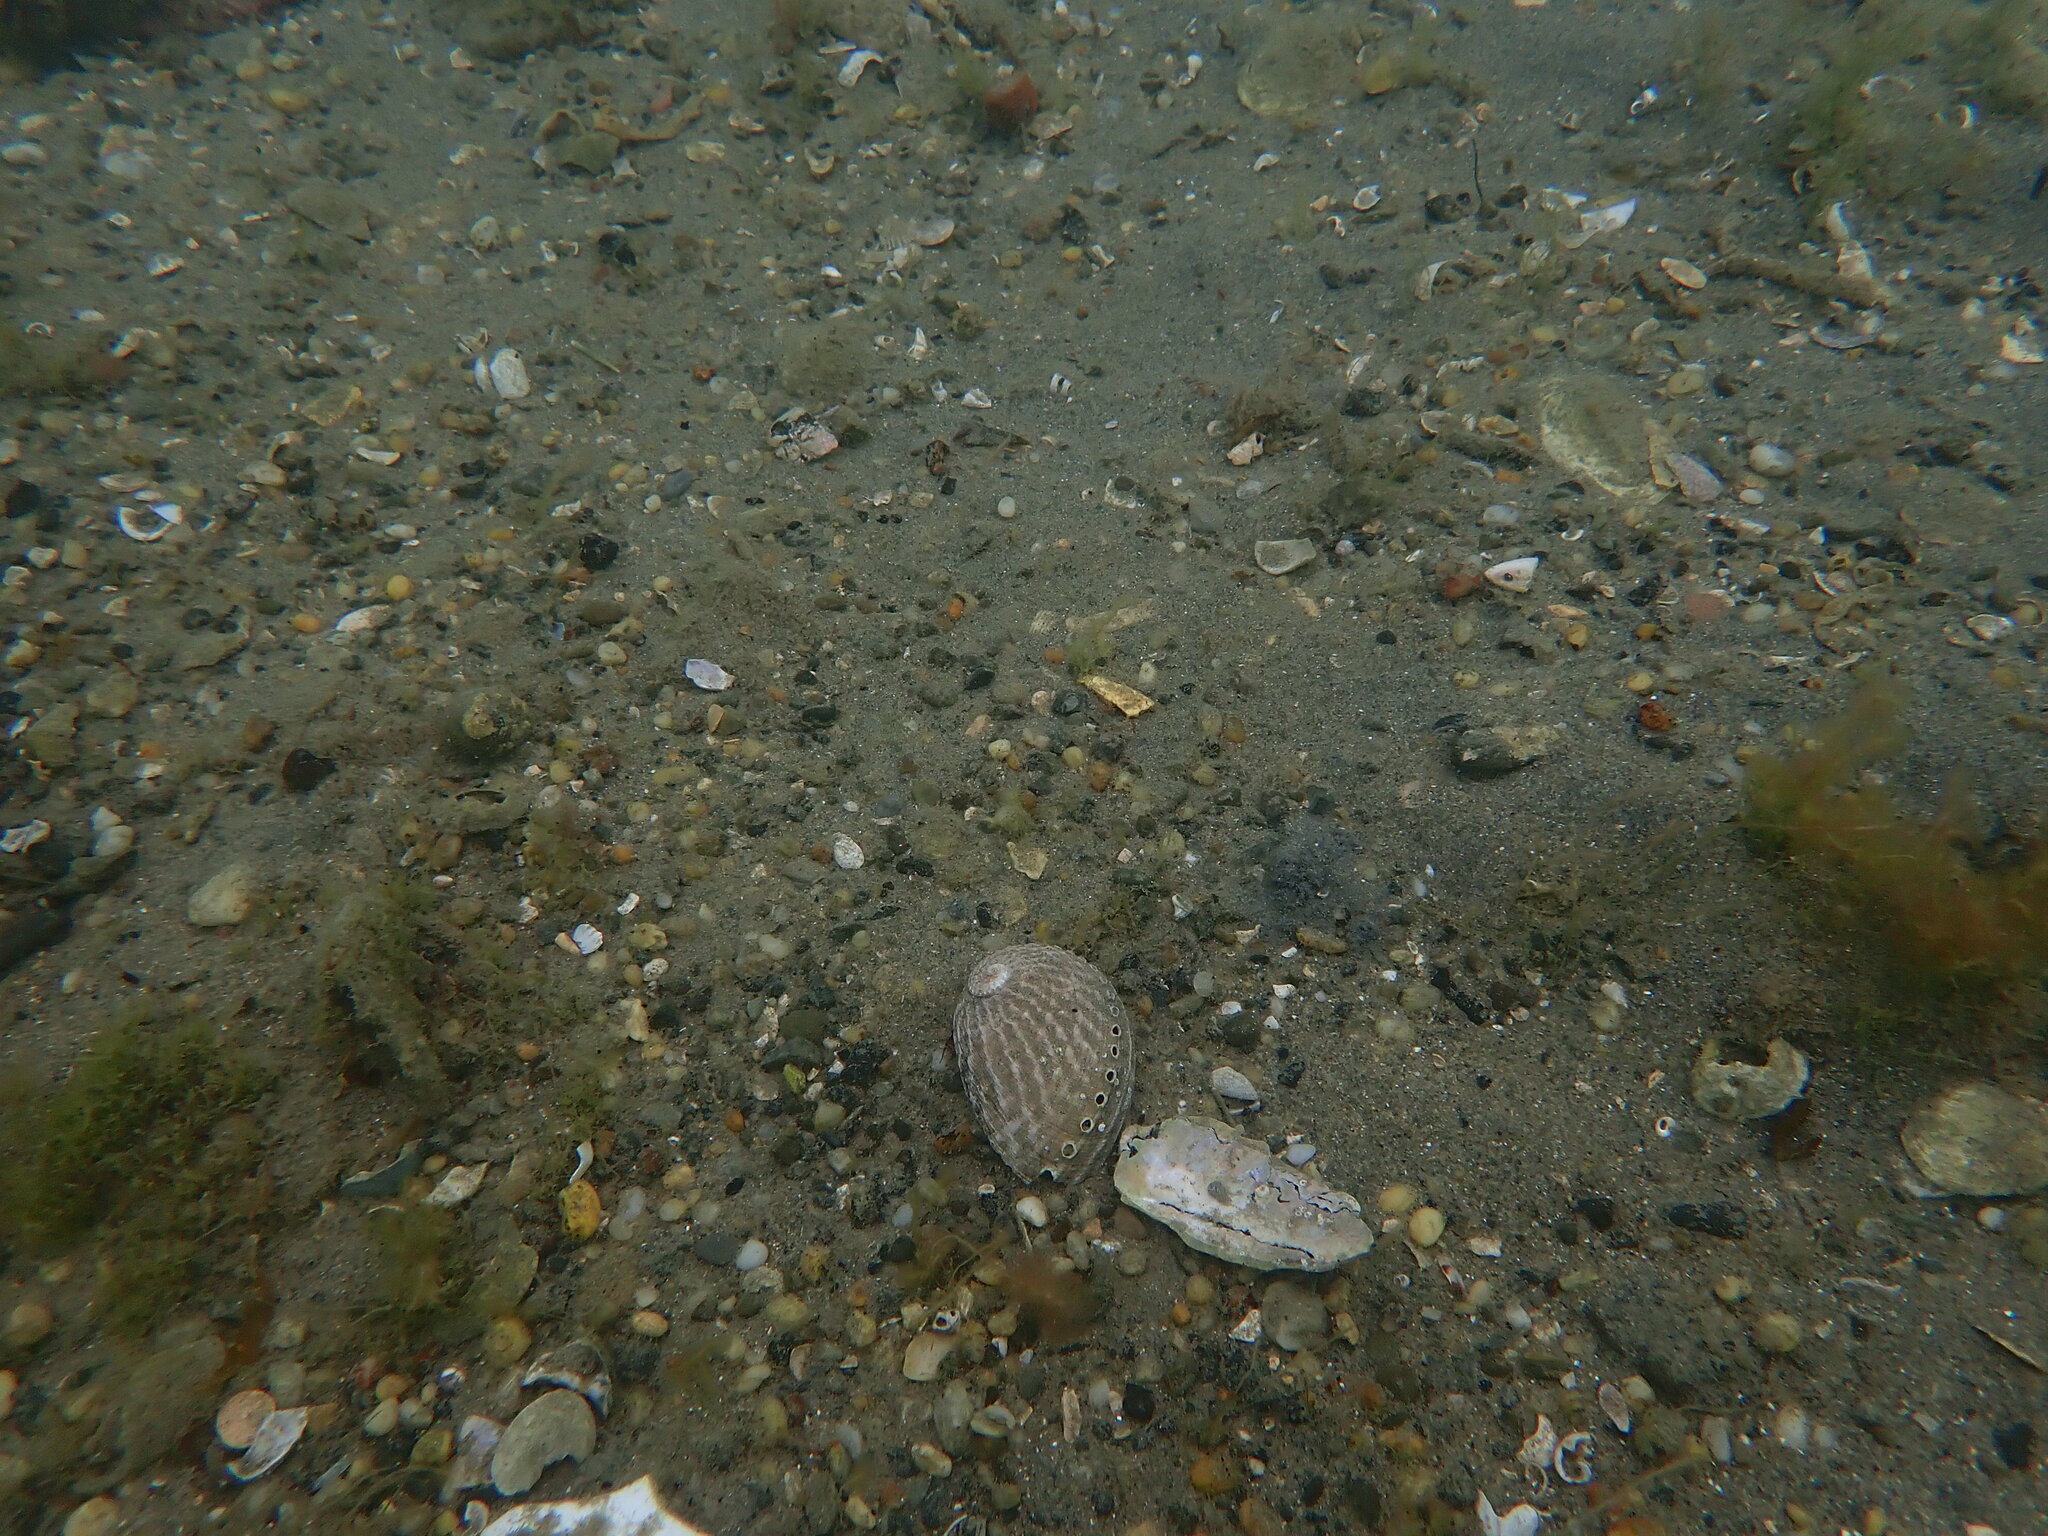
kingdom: Animalia
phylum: Mollusca
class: Gastropoda
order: Lepetellida
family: Haliotidae
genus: Haliotis
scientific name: Haliotis australis
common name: Silver abalone
